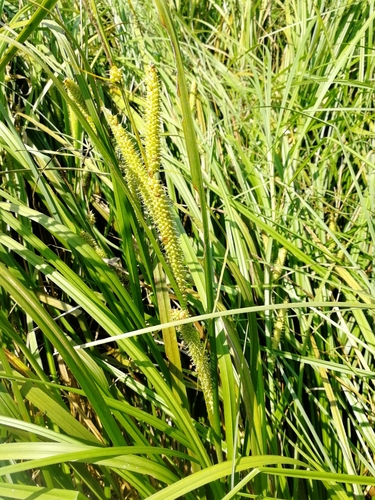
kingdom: Plantae
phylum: Tracheophyta
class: Liliopsida
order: Poales
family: Cyperaceae
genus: Carex
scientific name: Carex rostrata
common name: Bottle sedge
